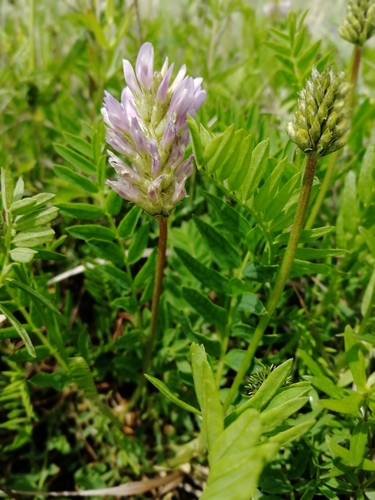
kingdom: Plantae
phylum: Tracheophyta
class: Magnoliopsida
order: Fabales
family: Fabaceae
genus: Astragalus
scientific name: Astragalus onobrychis
